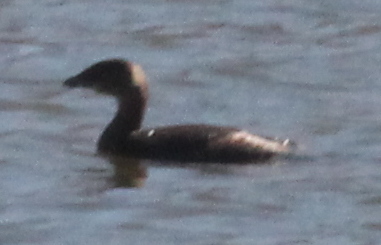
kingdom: Animalia
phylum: Chordata
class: Aves
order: Podicipediformes
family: Podicipedidae
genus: Podilymbus
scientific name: Podilymbus podiceps
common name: Pied-billed grebe
